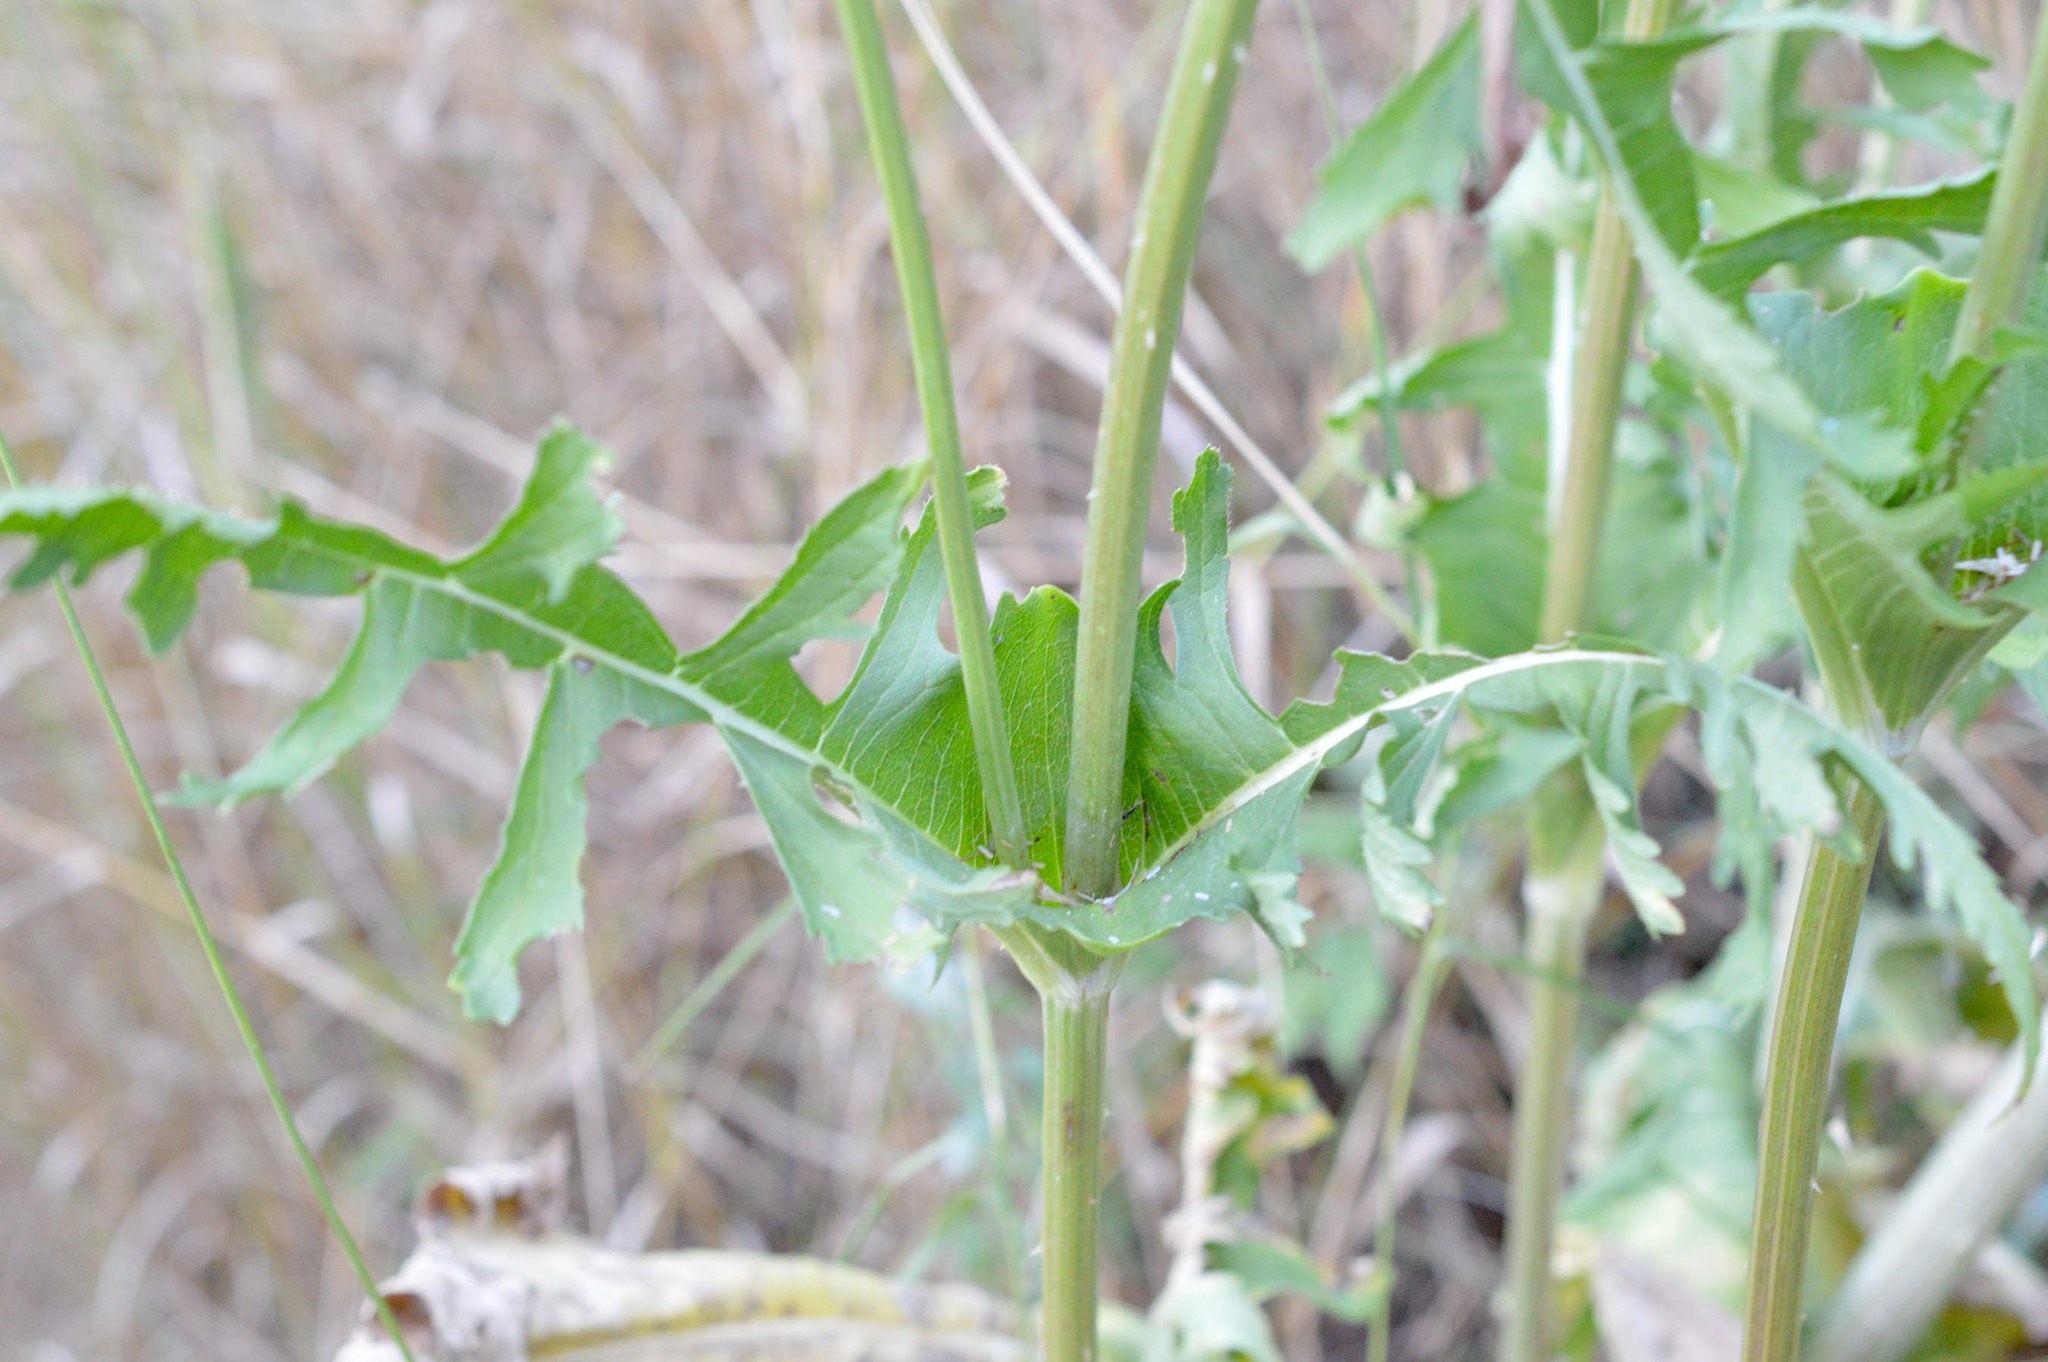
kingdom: Plantae
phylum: Tracheophyta
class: Magnoliopsida
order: Dipsacales
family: Caprifoliaceae
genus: Dipsacus
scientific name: Dipsacus laciniatus
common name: Cut-leaved teasel
